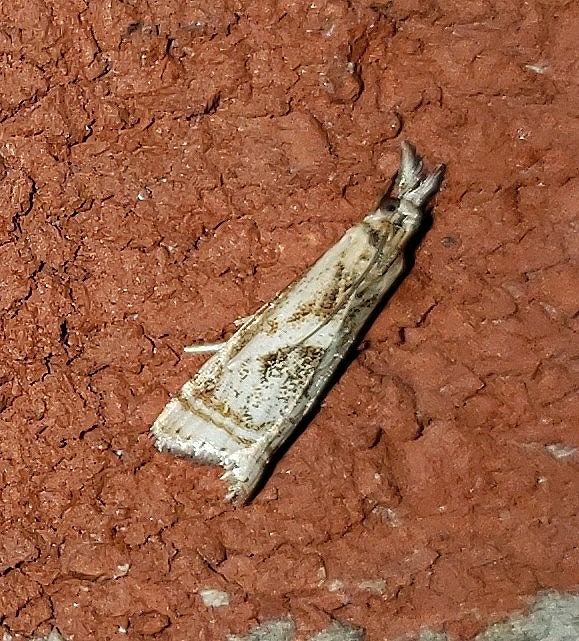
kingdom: Animalia
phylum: Arthropoda
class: Insecta
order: Lepidoptera
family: Crambidae
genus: Microcrambus
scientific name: Microcrambus elegans
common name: Elegant grass-veneer
